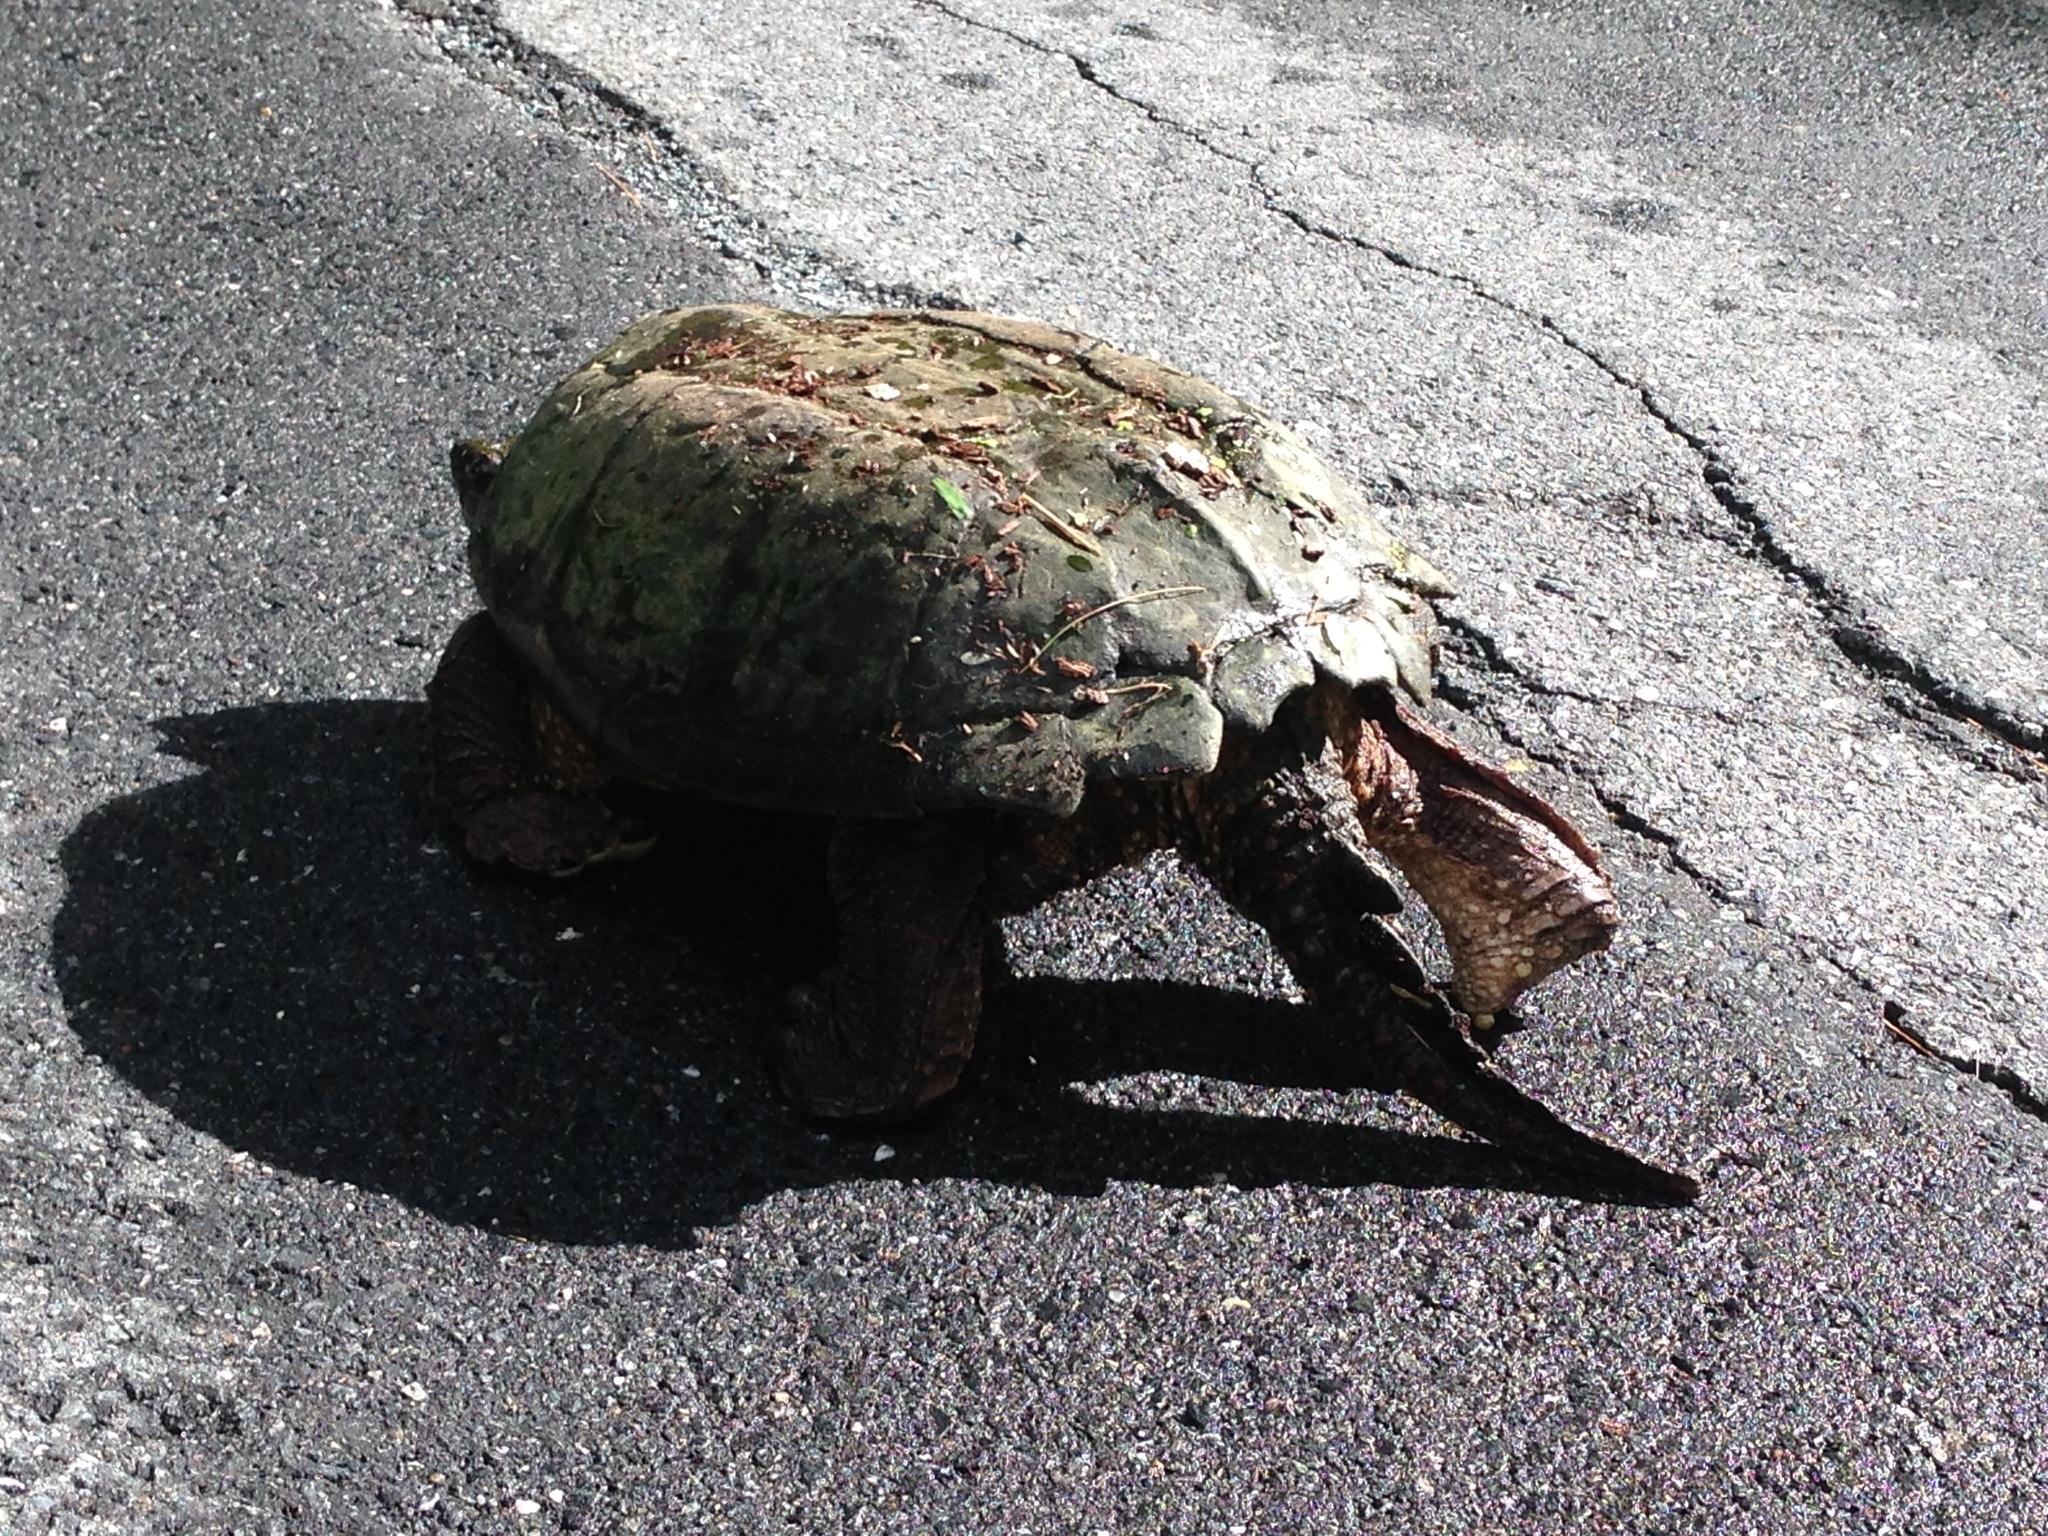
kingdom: Animalia
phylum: Chordata
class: Testudines
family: Chelydridae
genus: Chelydra
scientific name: Chelydra serpentina
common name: Common snapping turtle
